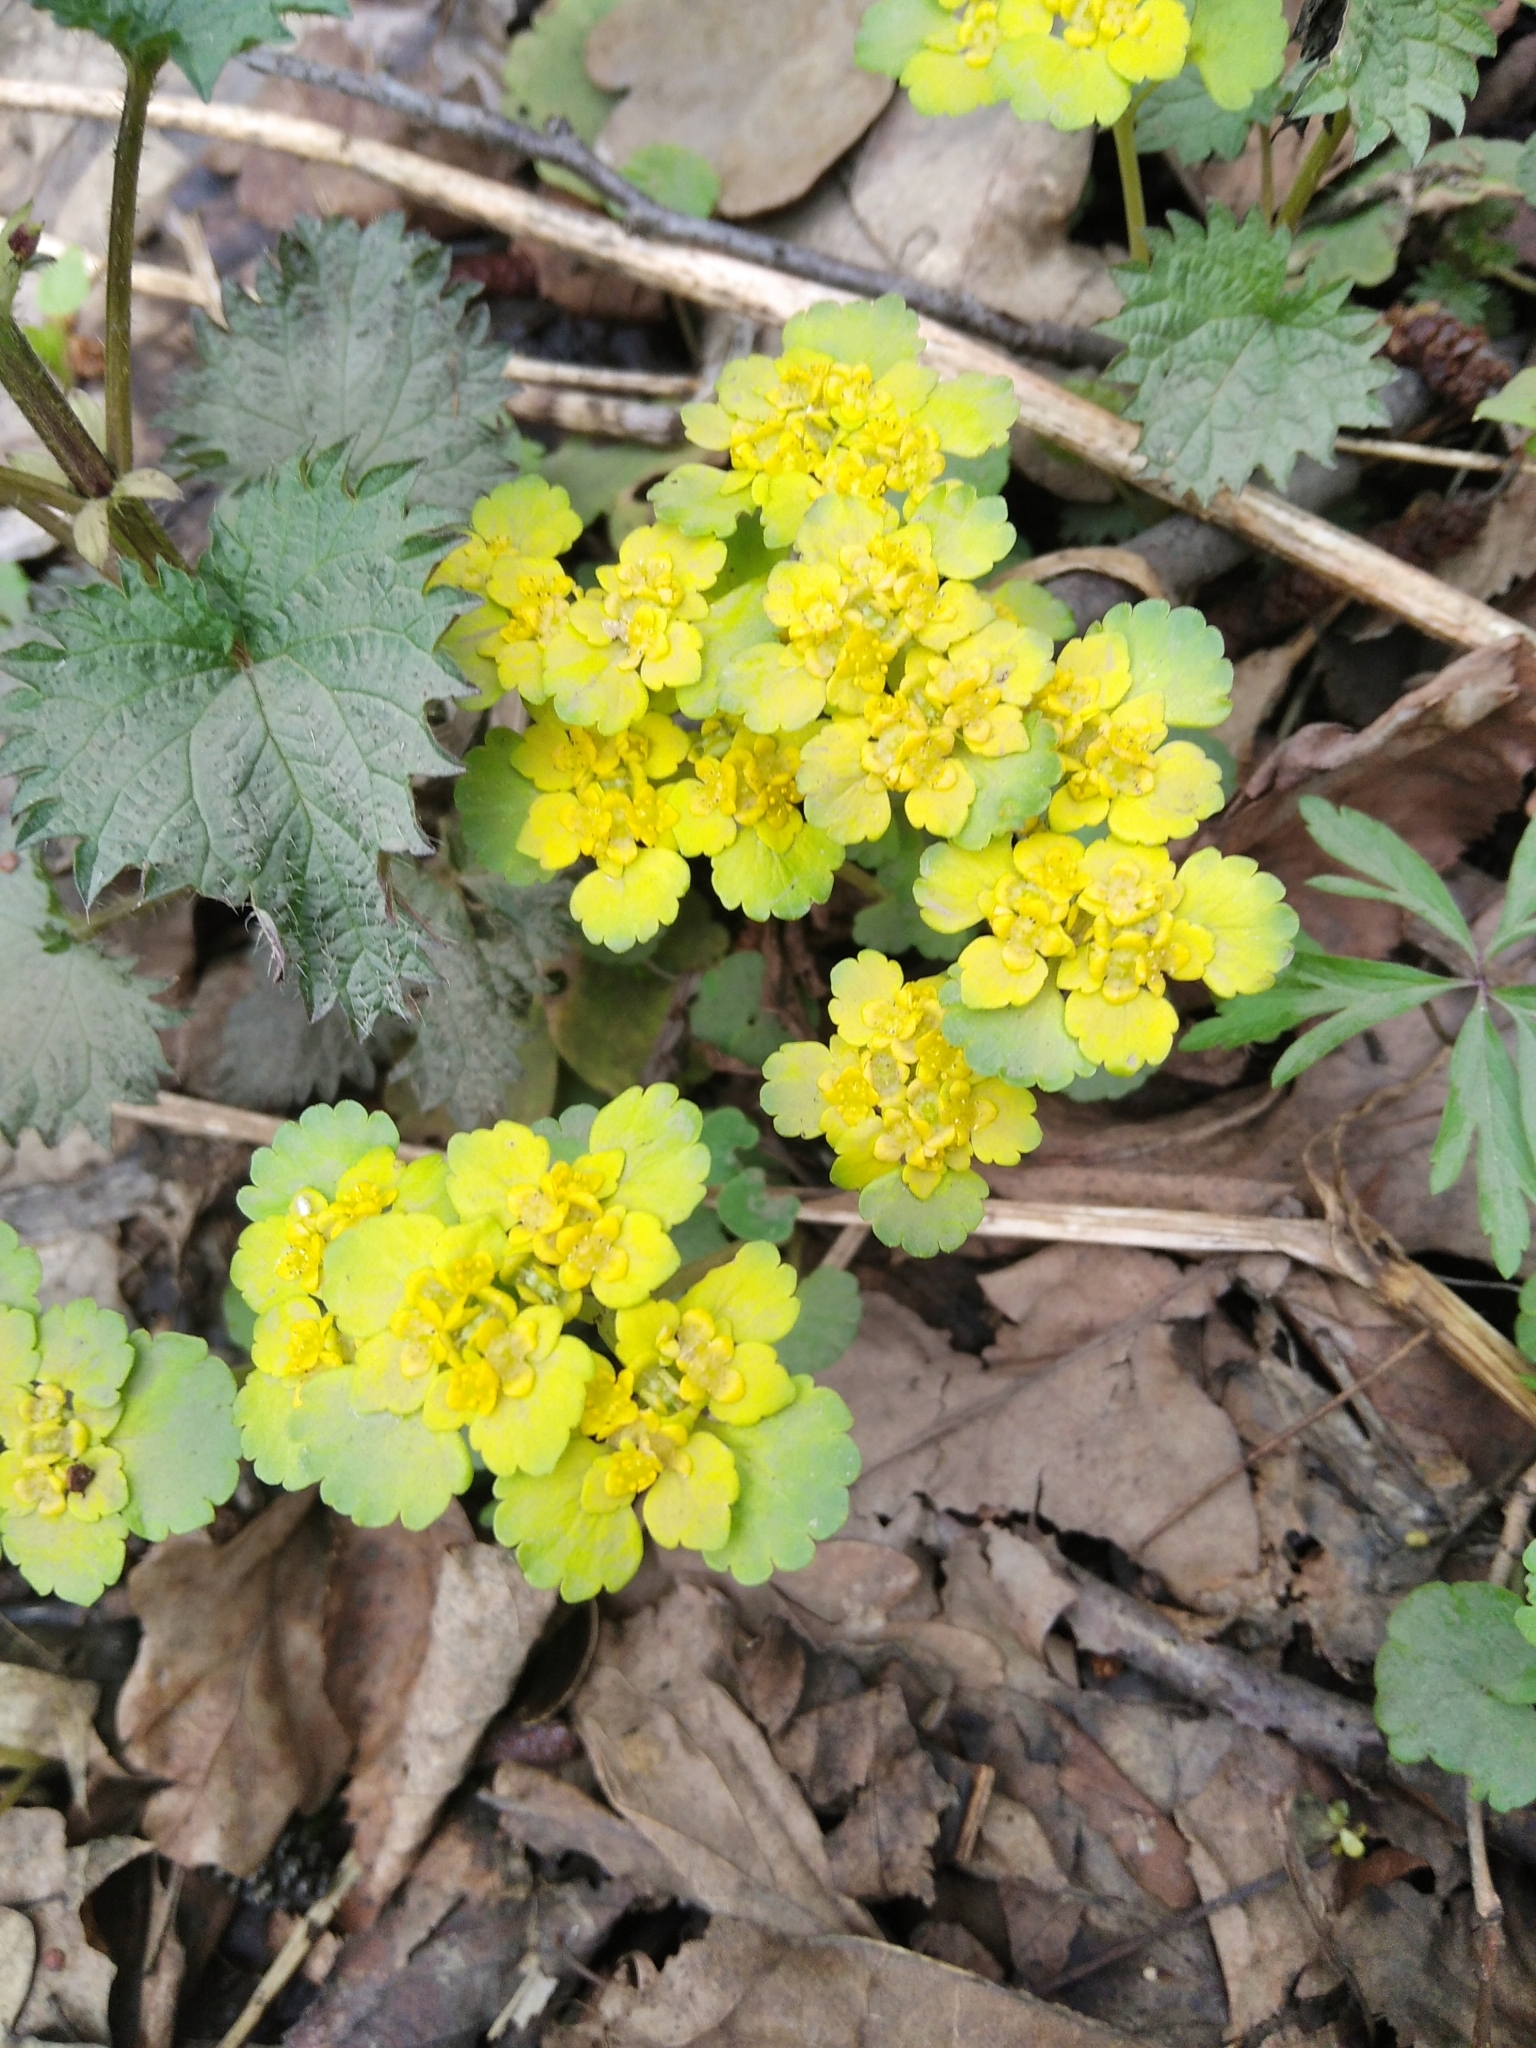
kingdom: Plantae
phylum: Tracheophyta
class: Magnoliopsida
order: Saxifragales
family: Saxifragaceae
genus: Chrysosplenium
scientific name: Chrysosplenium alternifolium
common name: Alternate-leaved golden-saxifrage
